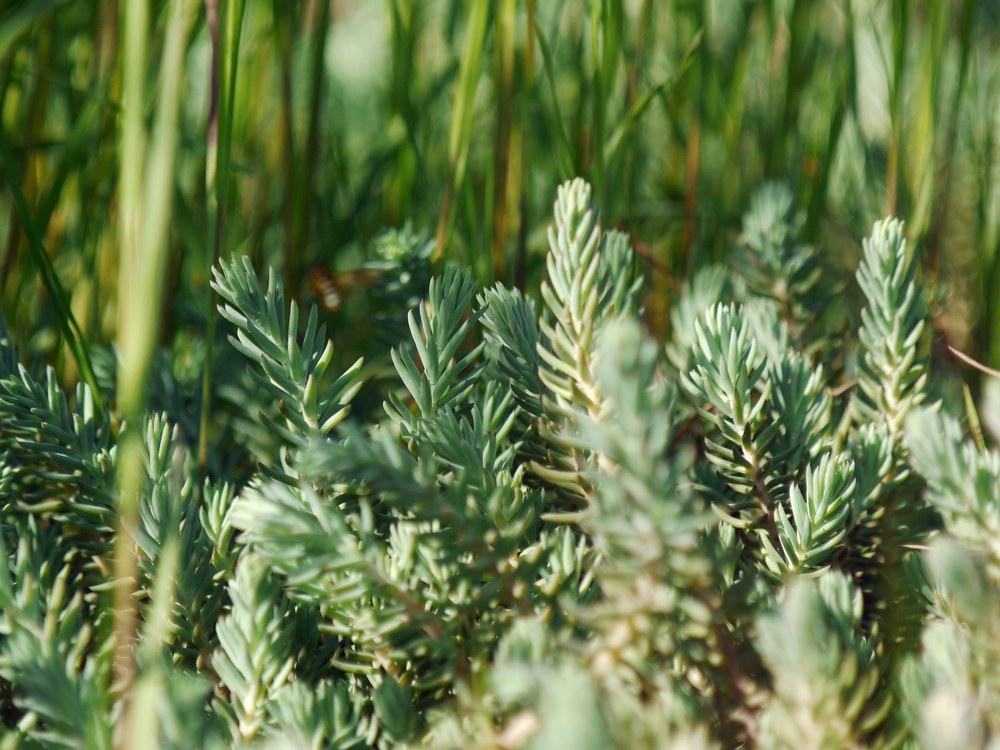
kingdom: Plantae
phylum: Tracheophyta
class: Magnoliopsida
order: Saxifragales
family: Crassulaceae
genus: Petrosedum
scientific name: Petrosedum
